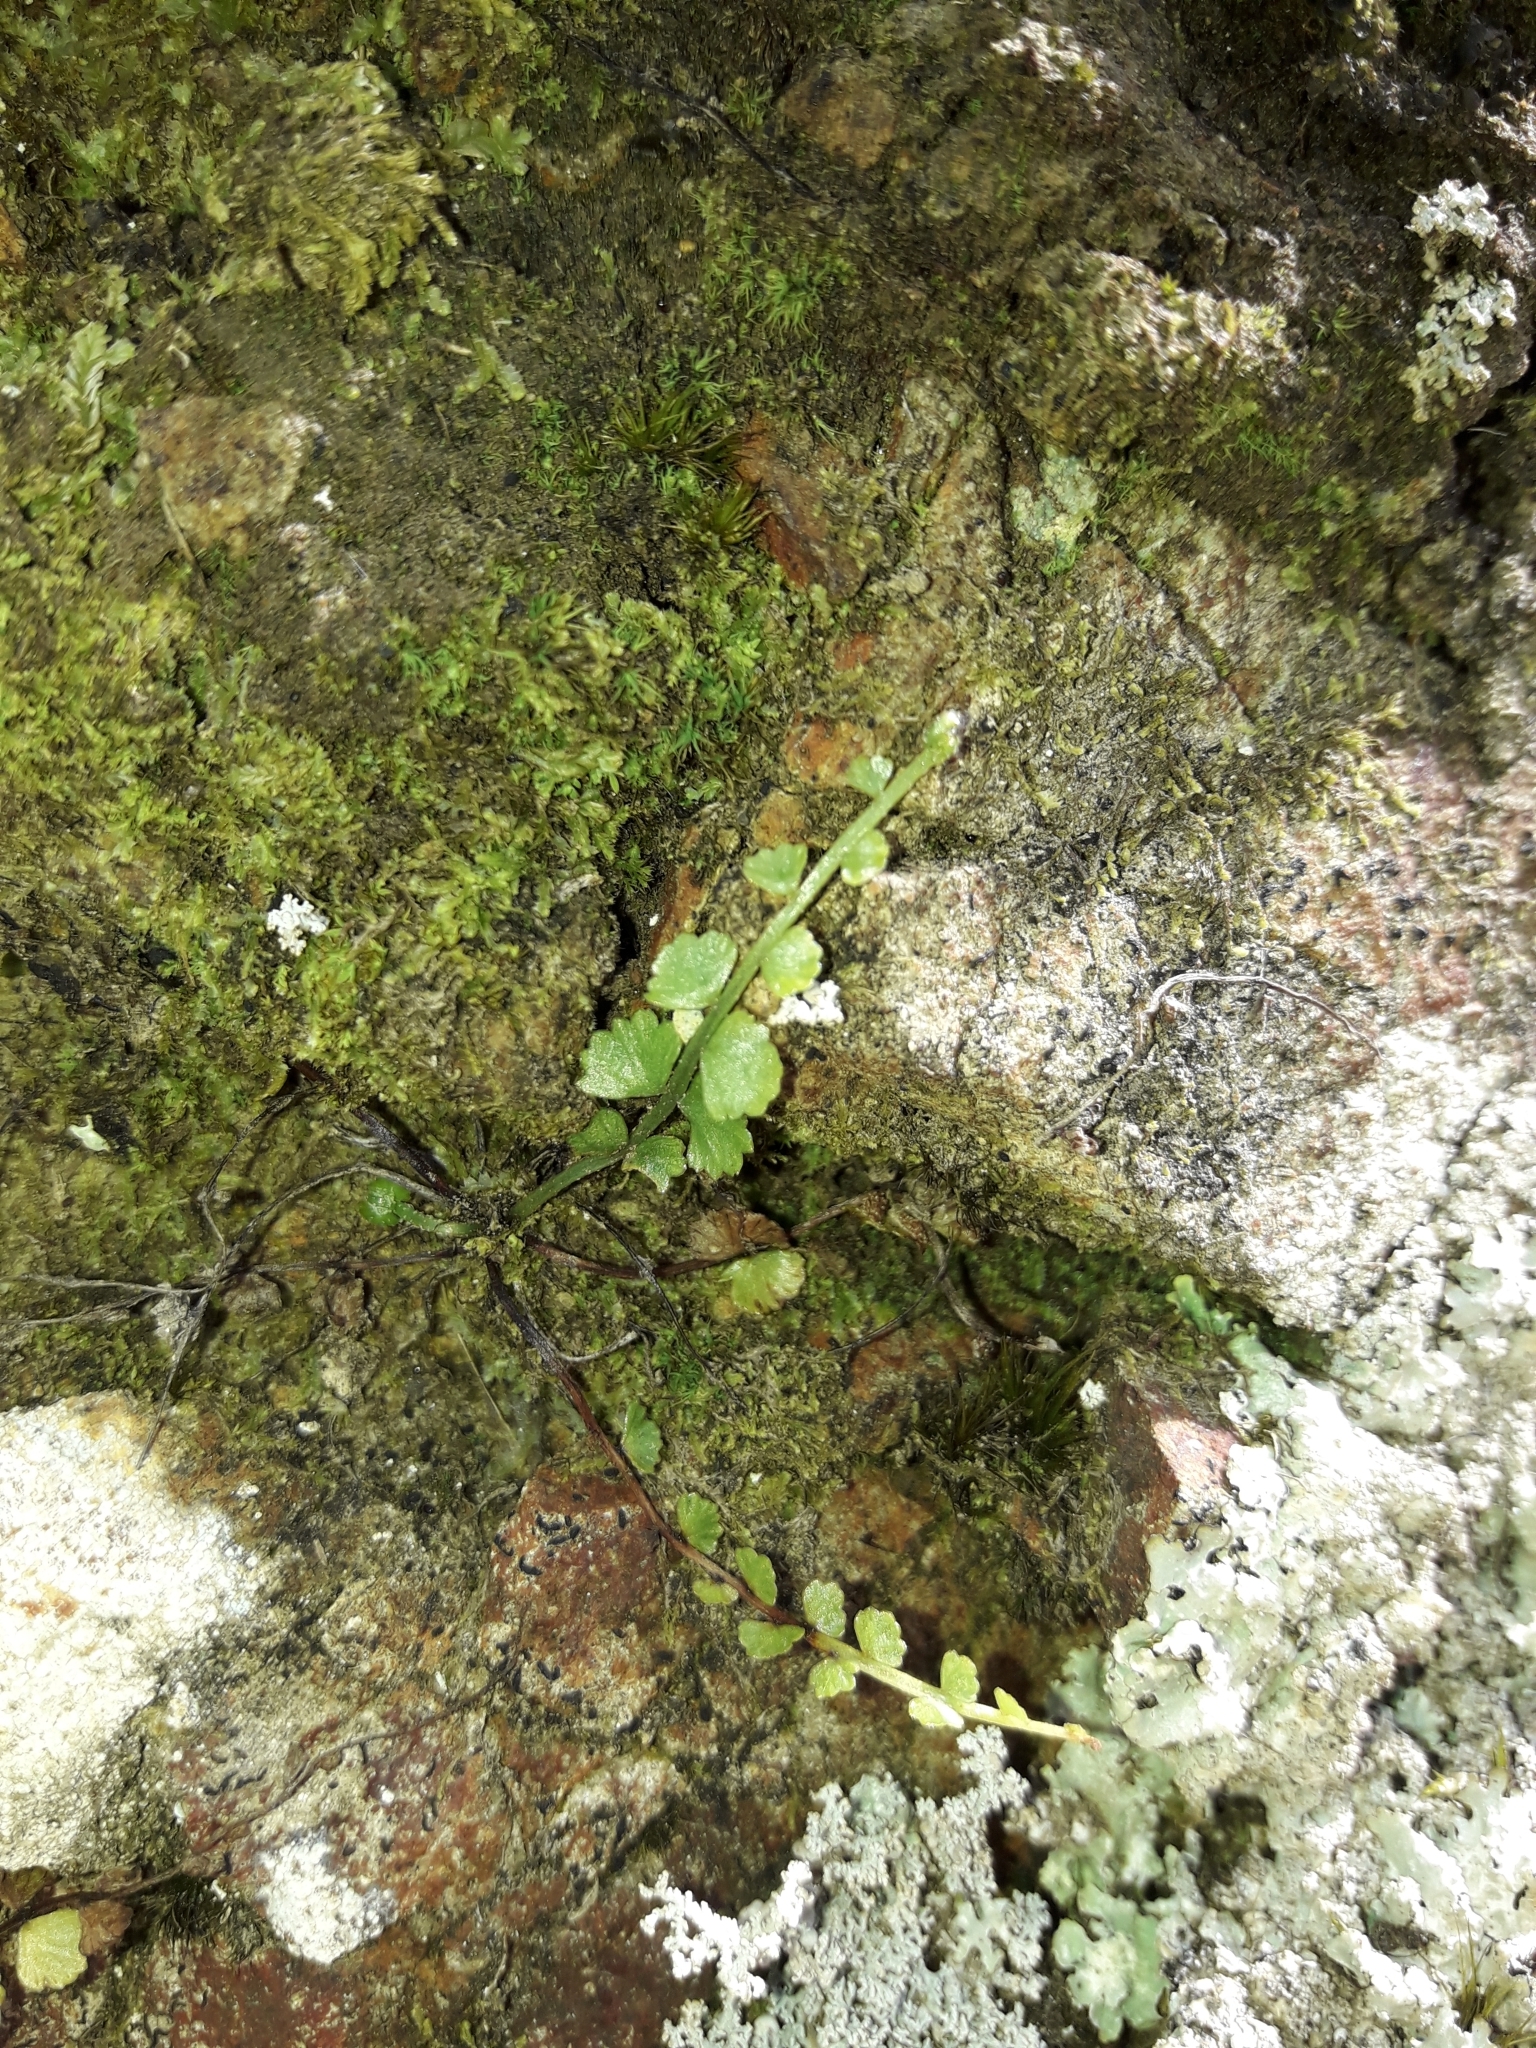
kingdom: Plantae
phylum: Tracheophyta
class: Polypodiopsida
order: Polypodiales
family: Aspleniaceae
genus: Asplenium
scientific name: Asplenium flabellifolium
